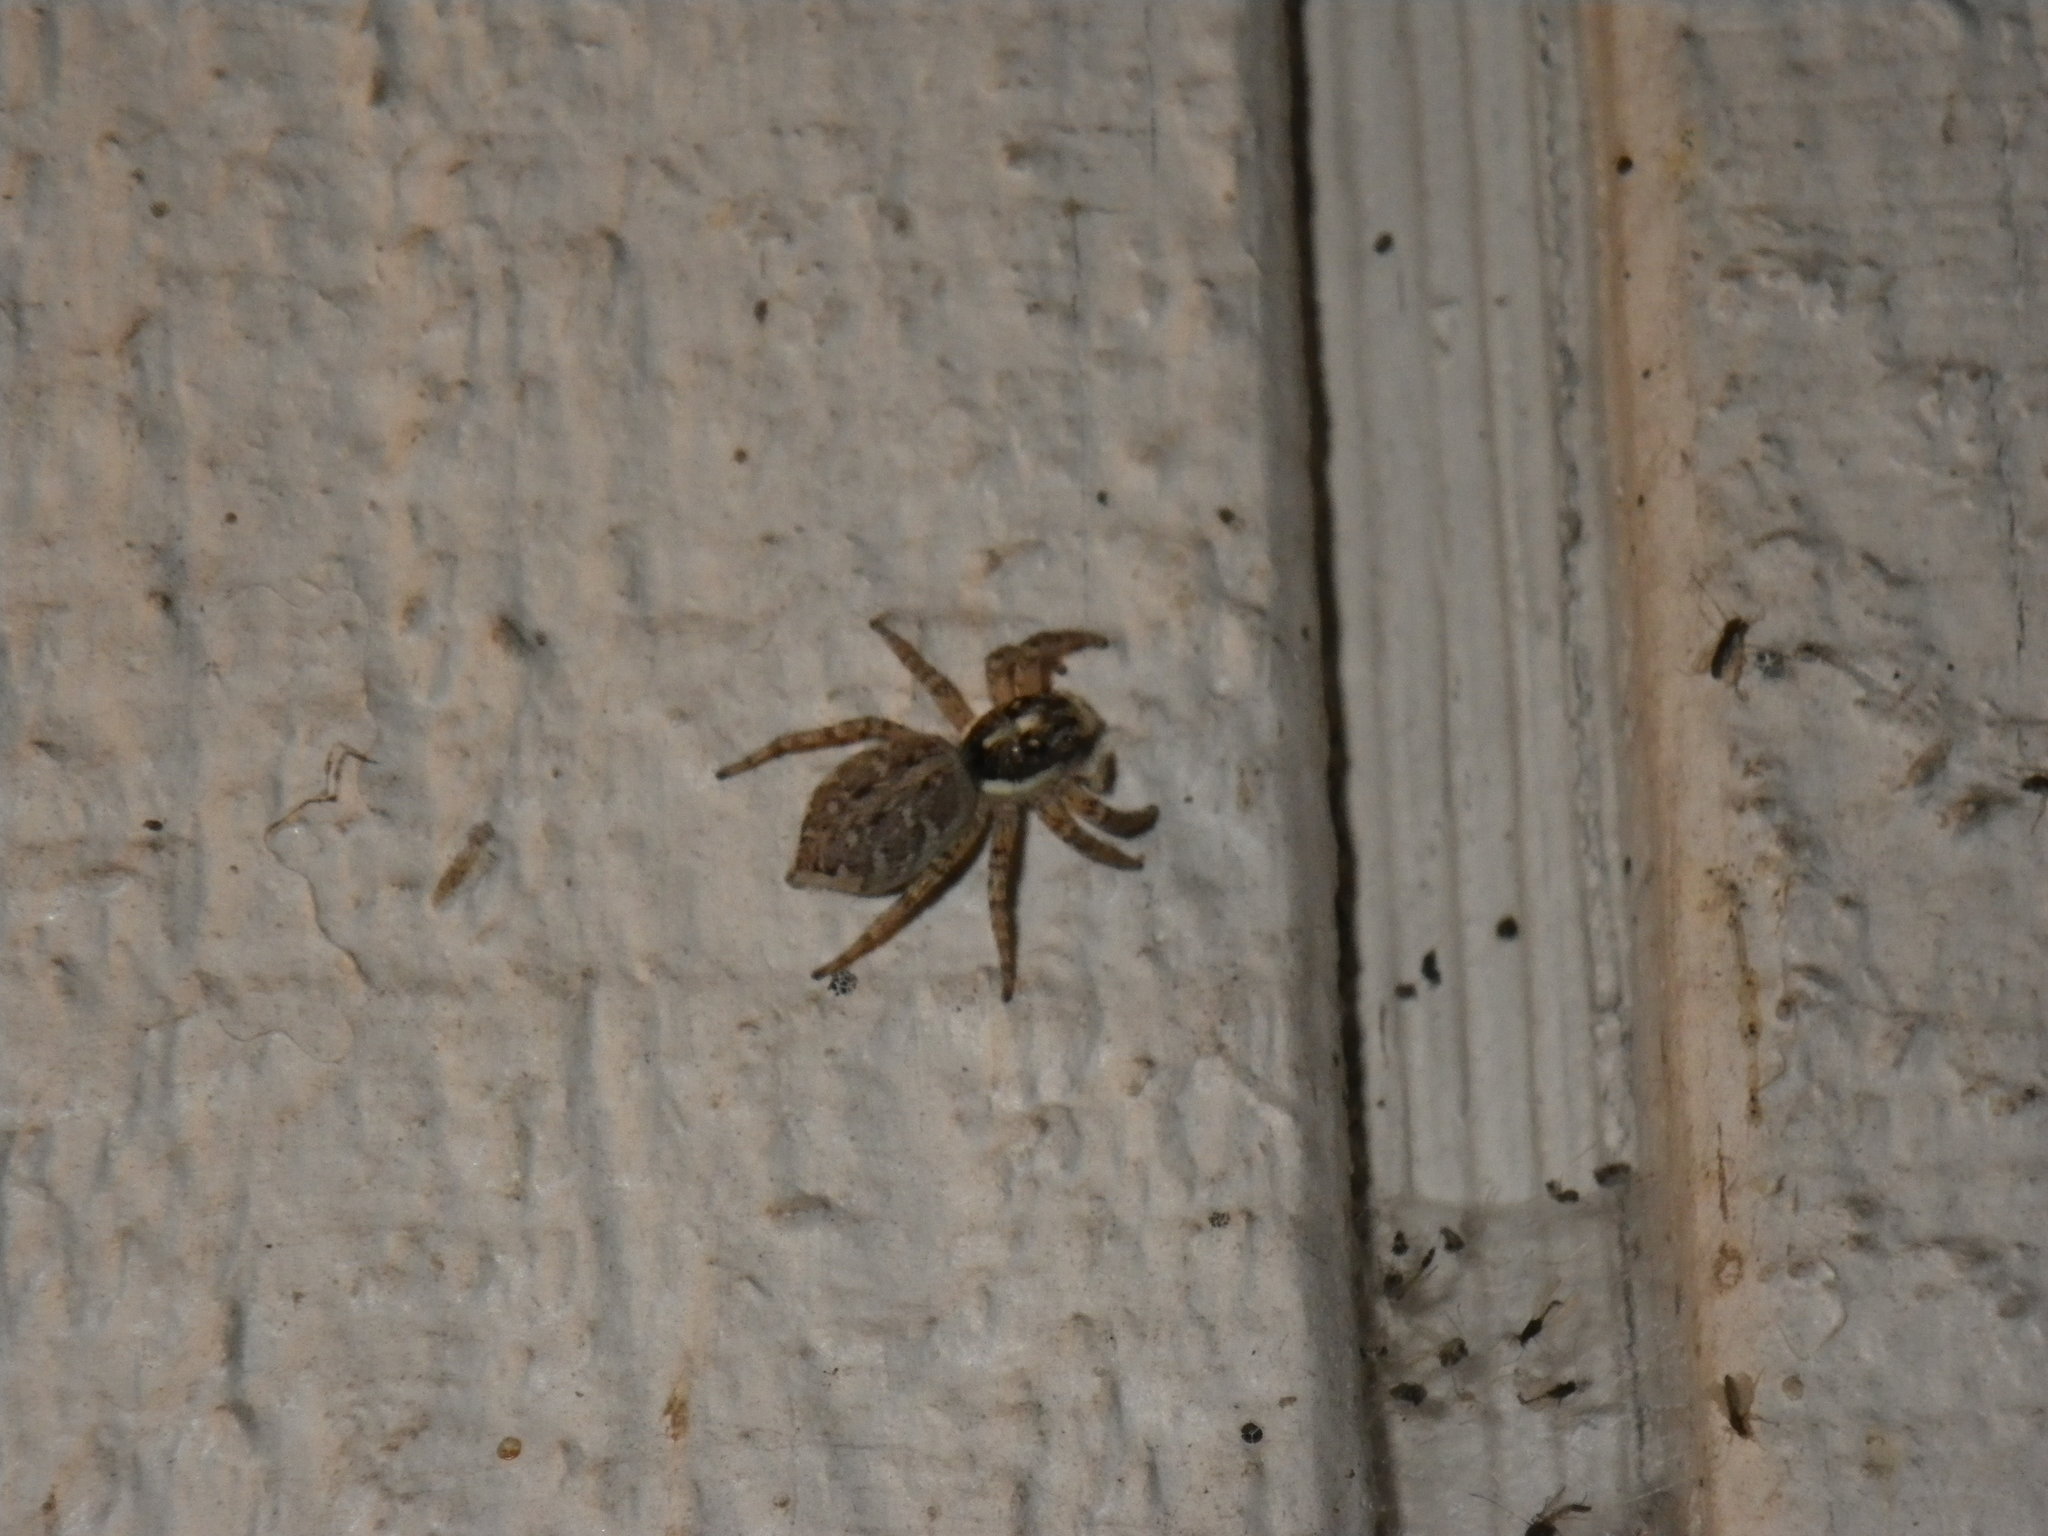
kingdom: Animalia
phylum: Arthropoda
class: Arachnida
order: Araneae
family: Salticidae
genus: Menemerus
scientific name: Menemerus semilimbatus
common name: Jumping spider
